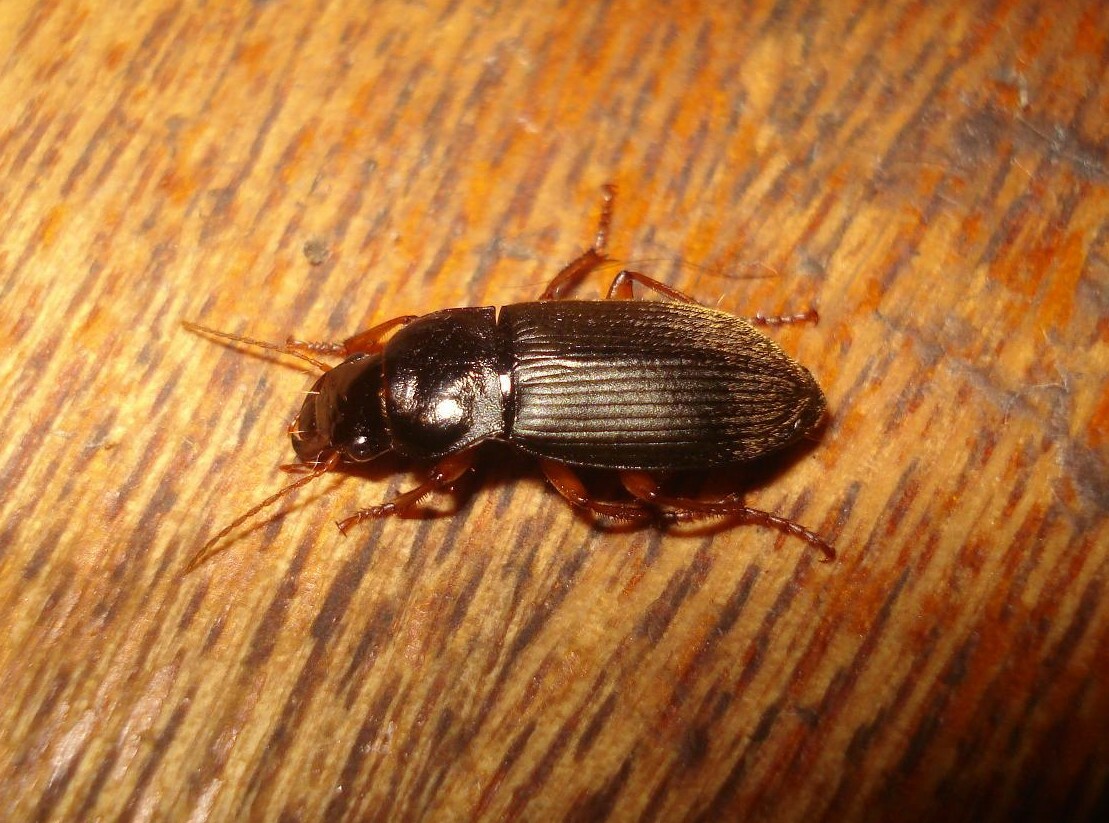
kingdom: Animalia
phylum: Arthropoda
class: Insecta
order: Coleoptera
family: Carabidae
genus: Harpalus
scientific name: Harpalus rufipes
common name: Strawberry harp ground beetle
